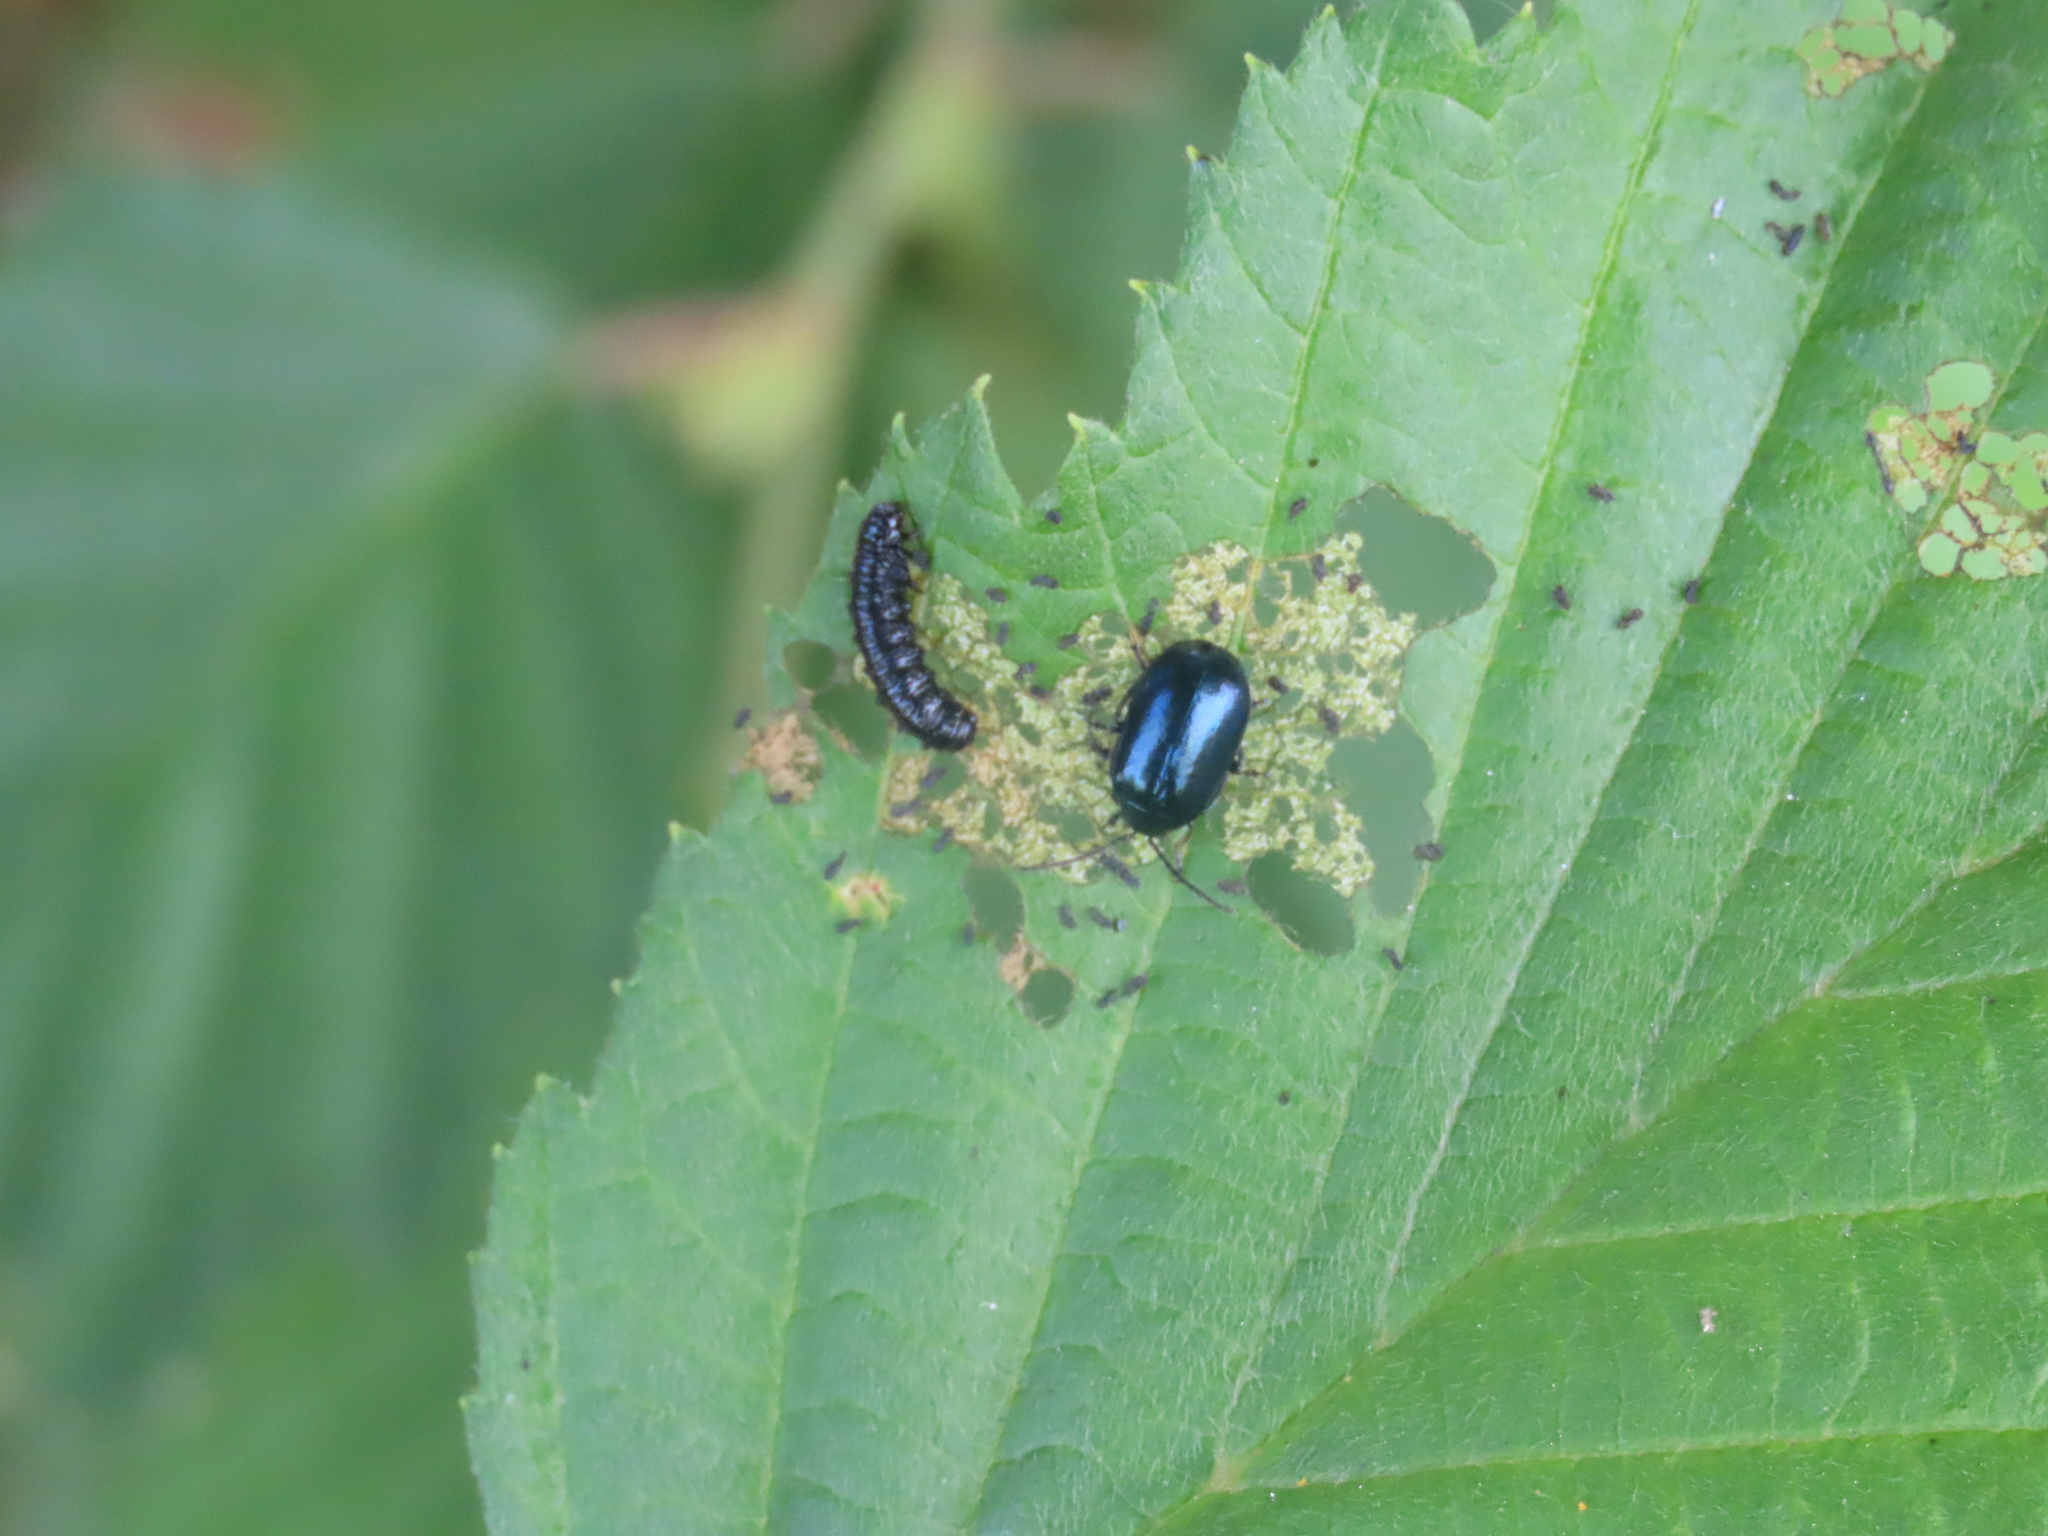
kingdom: Animalia
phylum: Arthropoda
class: Insecta
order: Coleoptera
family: Chrysomelidae
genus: Agelastica
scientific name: Agelastica alni
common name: Alder leaf beetle
